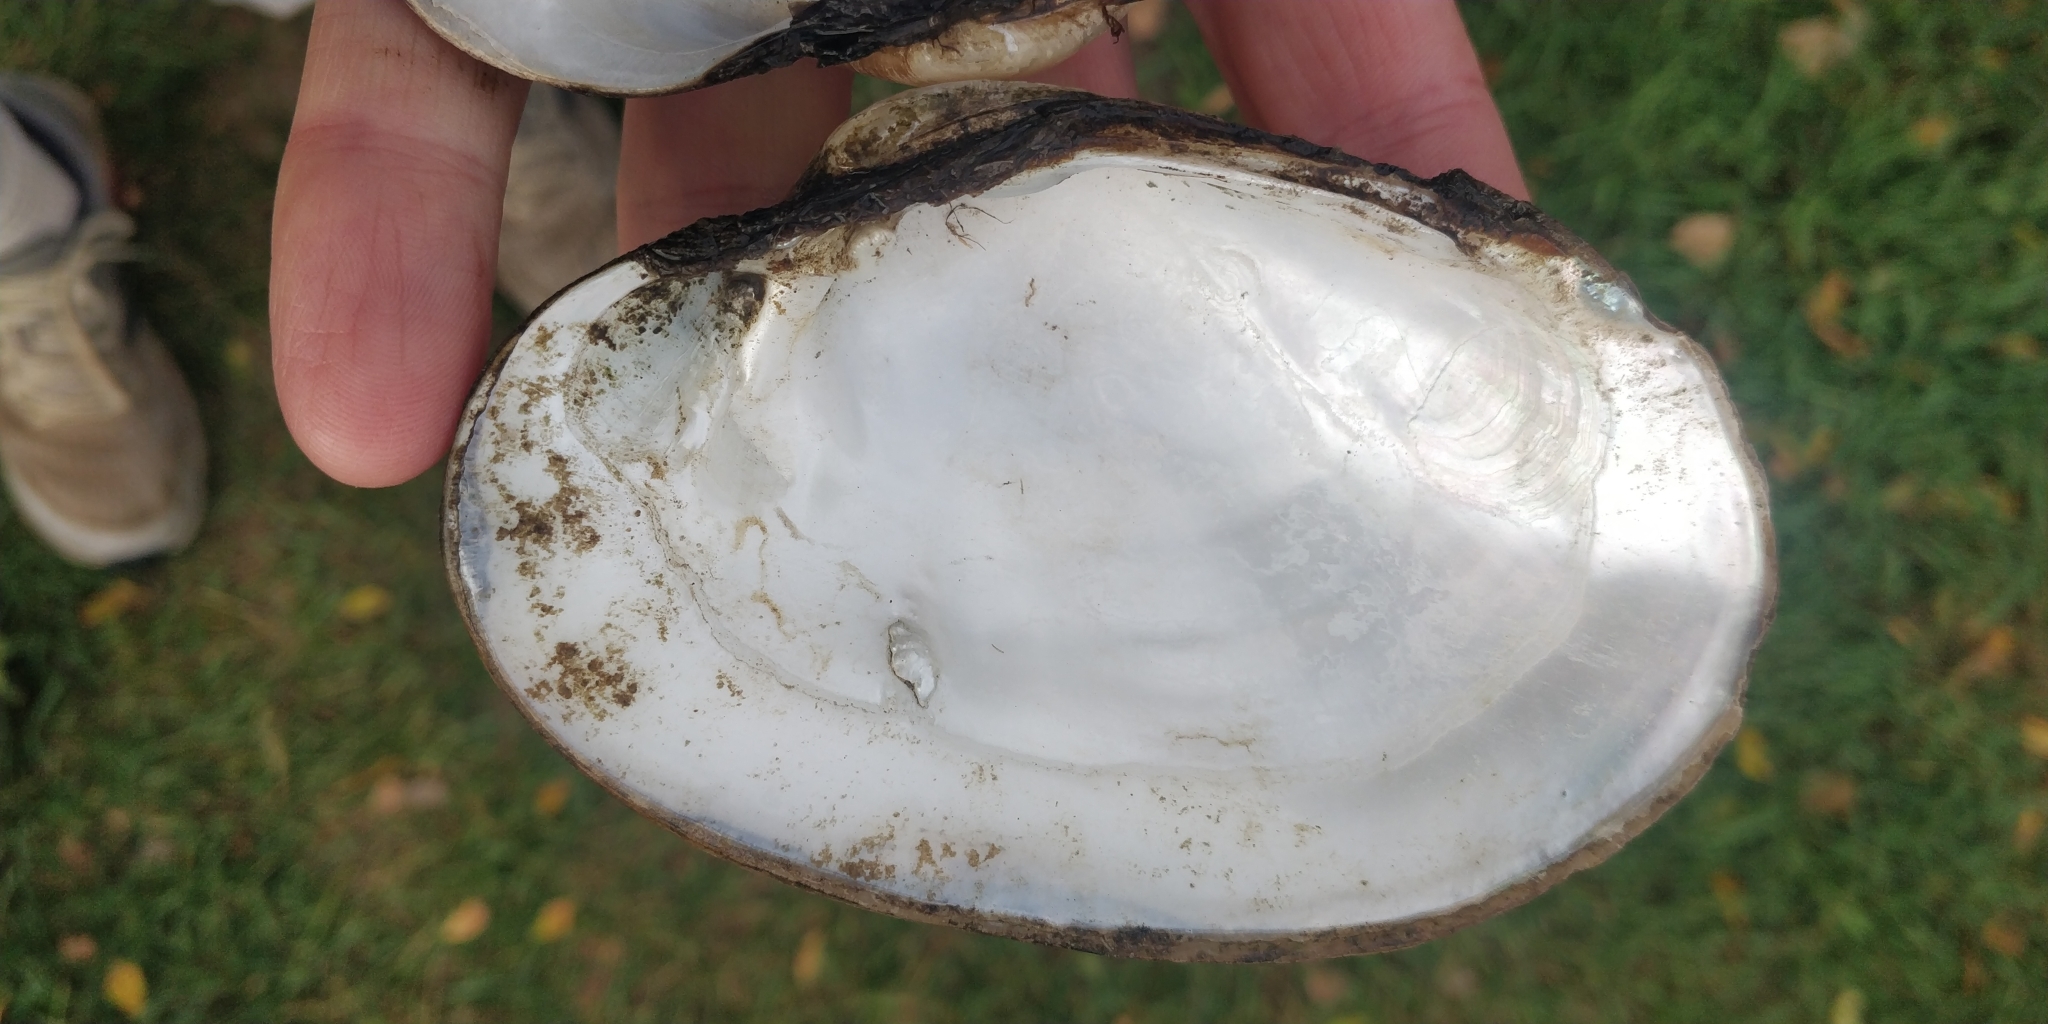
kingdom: Animalia
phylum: Mollusca
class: Bivalvia
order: Unionida
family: Unionidae
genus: Lampsilis
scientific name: Lampsilis cardium
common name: Plain pocketbook
